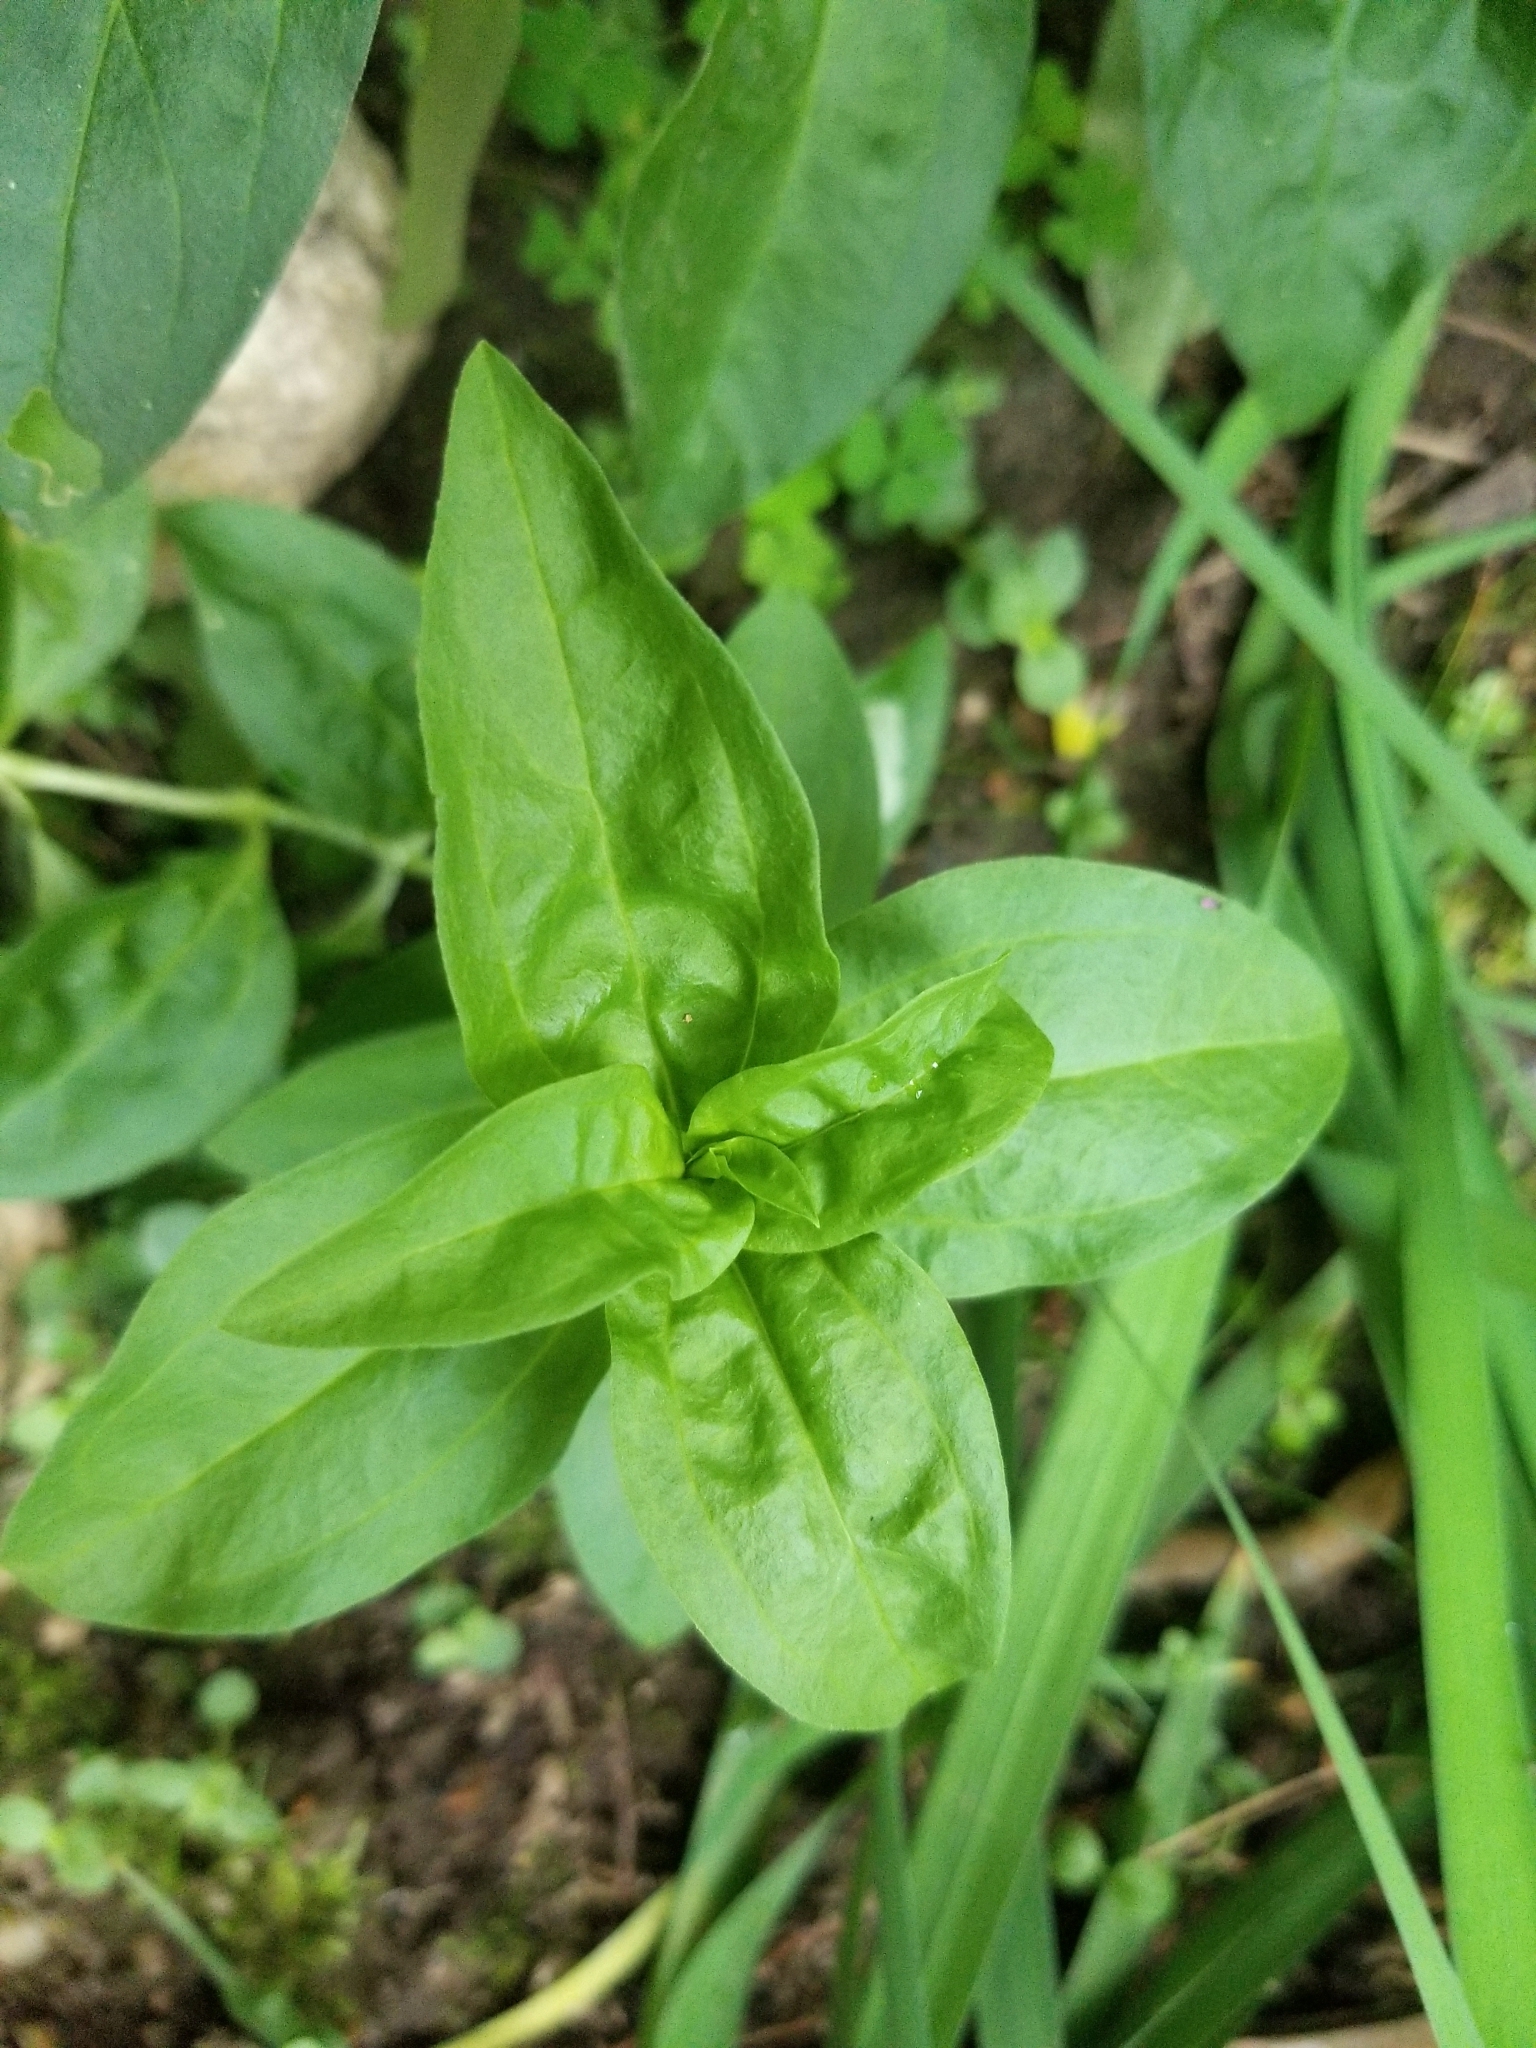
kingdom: Plantae
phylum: Tracheophyta
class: Magnoliopsida
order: Caryophyllales
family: Caryophyllaceae
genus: Saponaria
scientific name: Saponaria officinalis
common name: Soapwort
